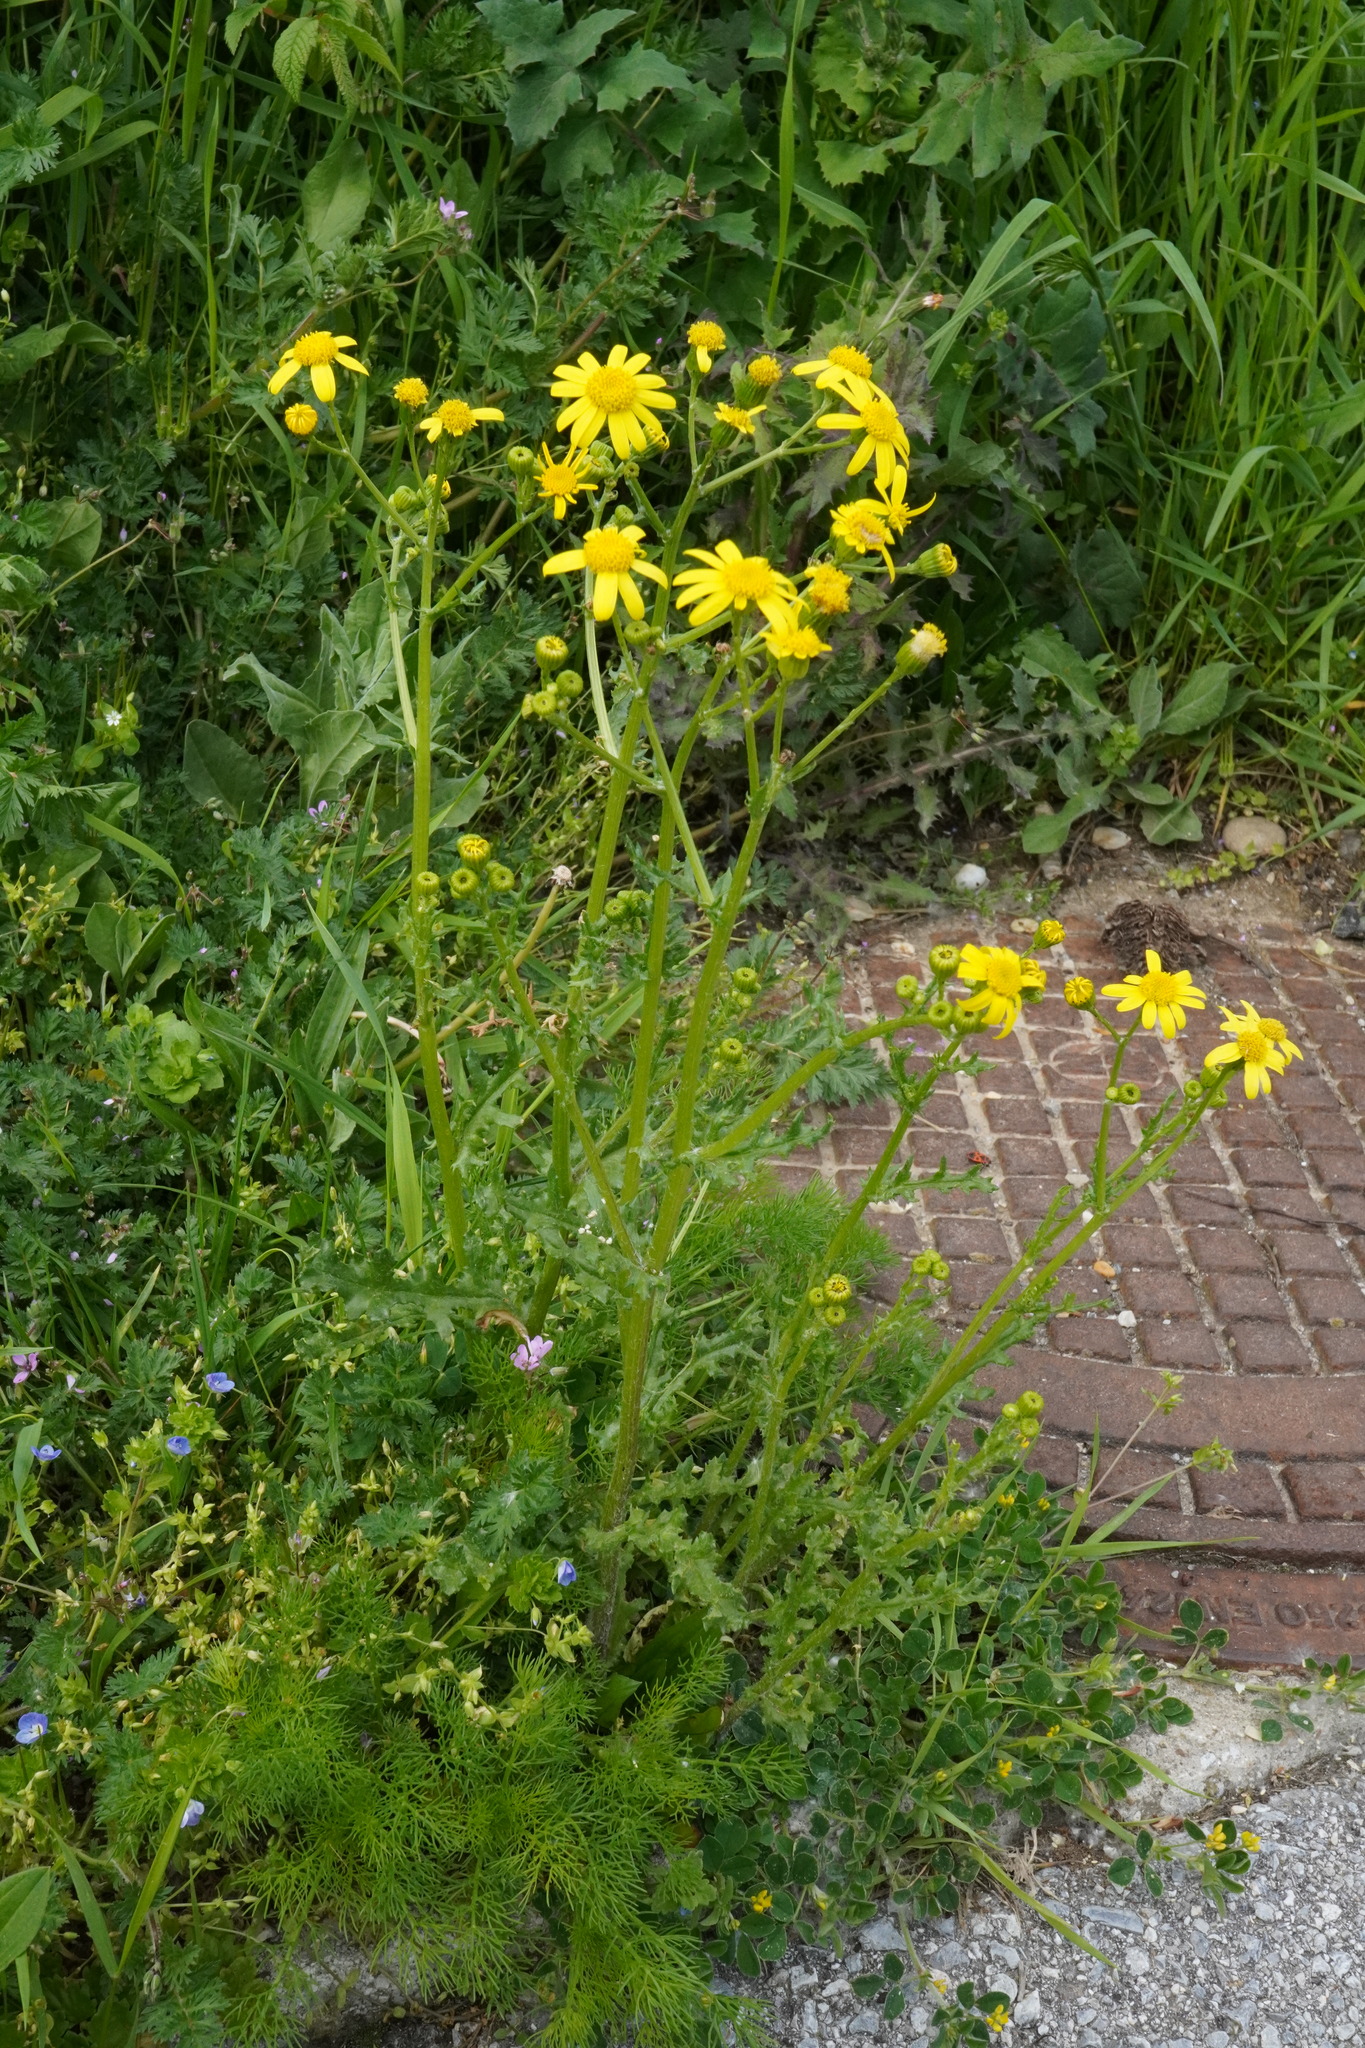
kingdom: Plantae
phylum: Tracheophyta
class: Magnoliopsida
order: Asterales
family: Asteraceae
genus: Senecio
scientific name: Senecio vernalis
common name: Eastern groundsel
